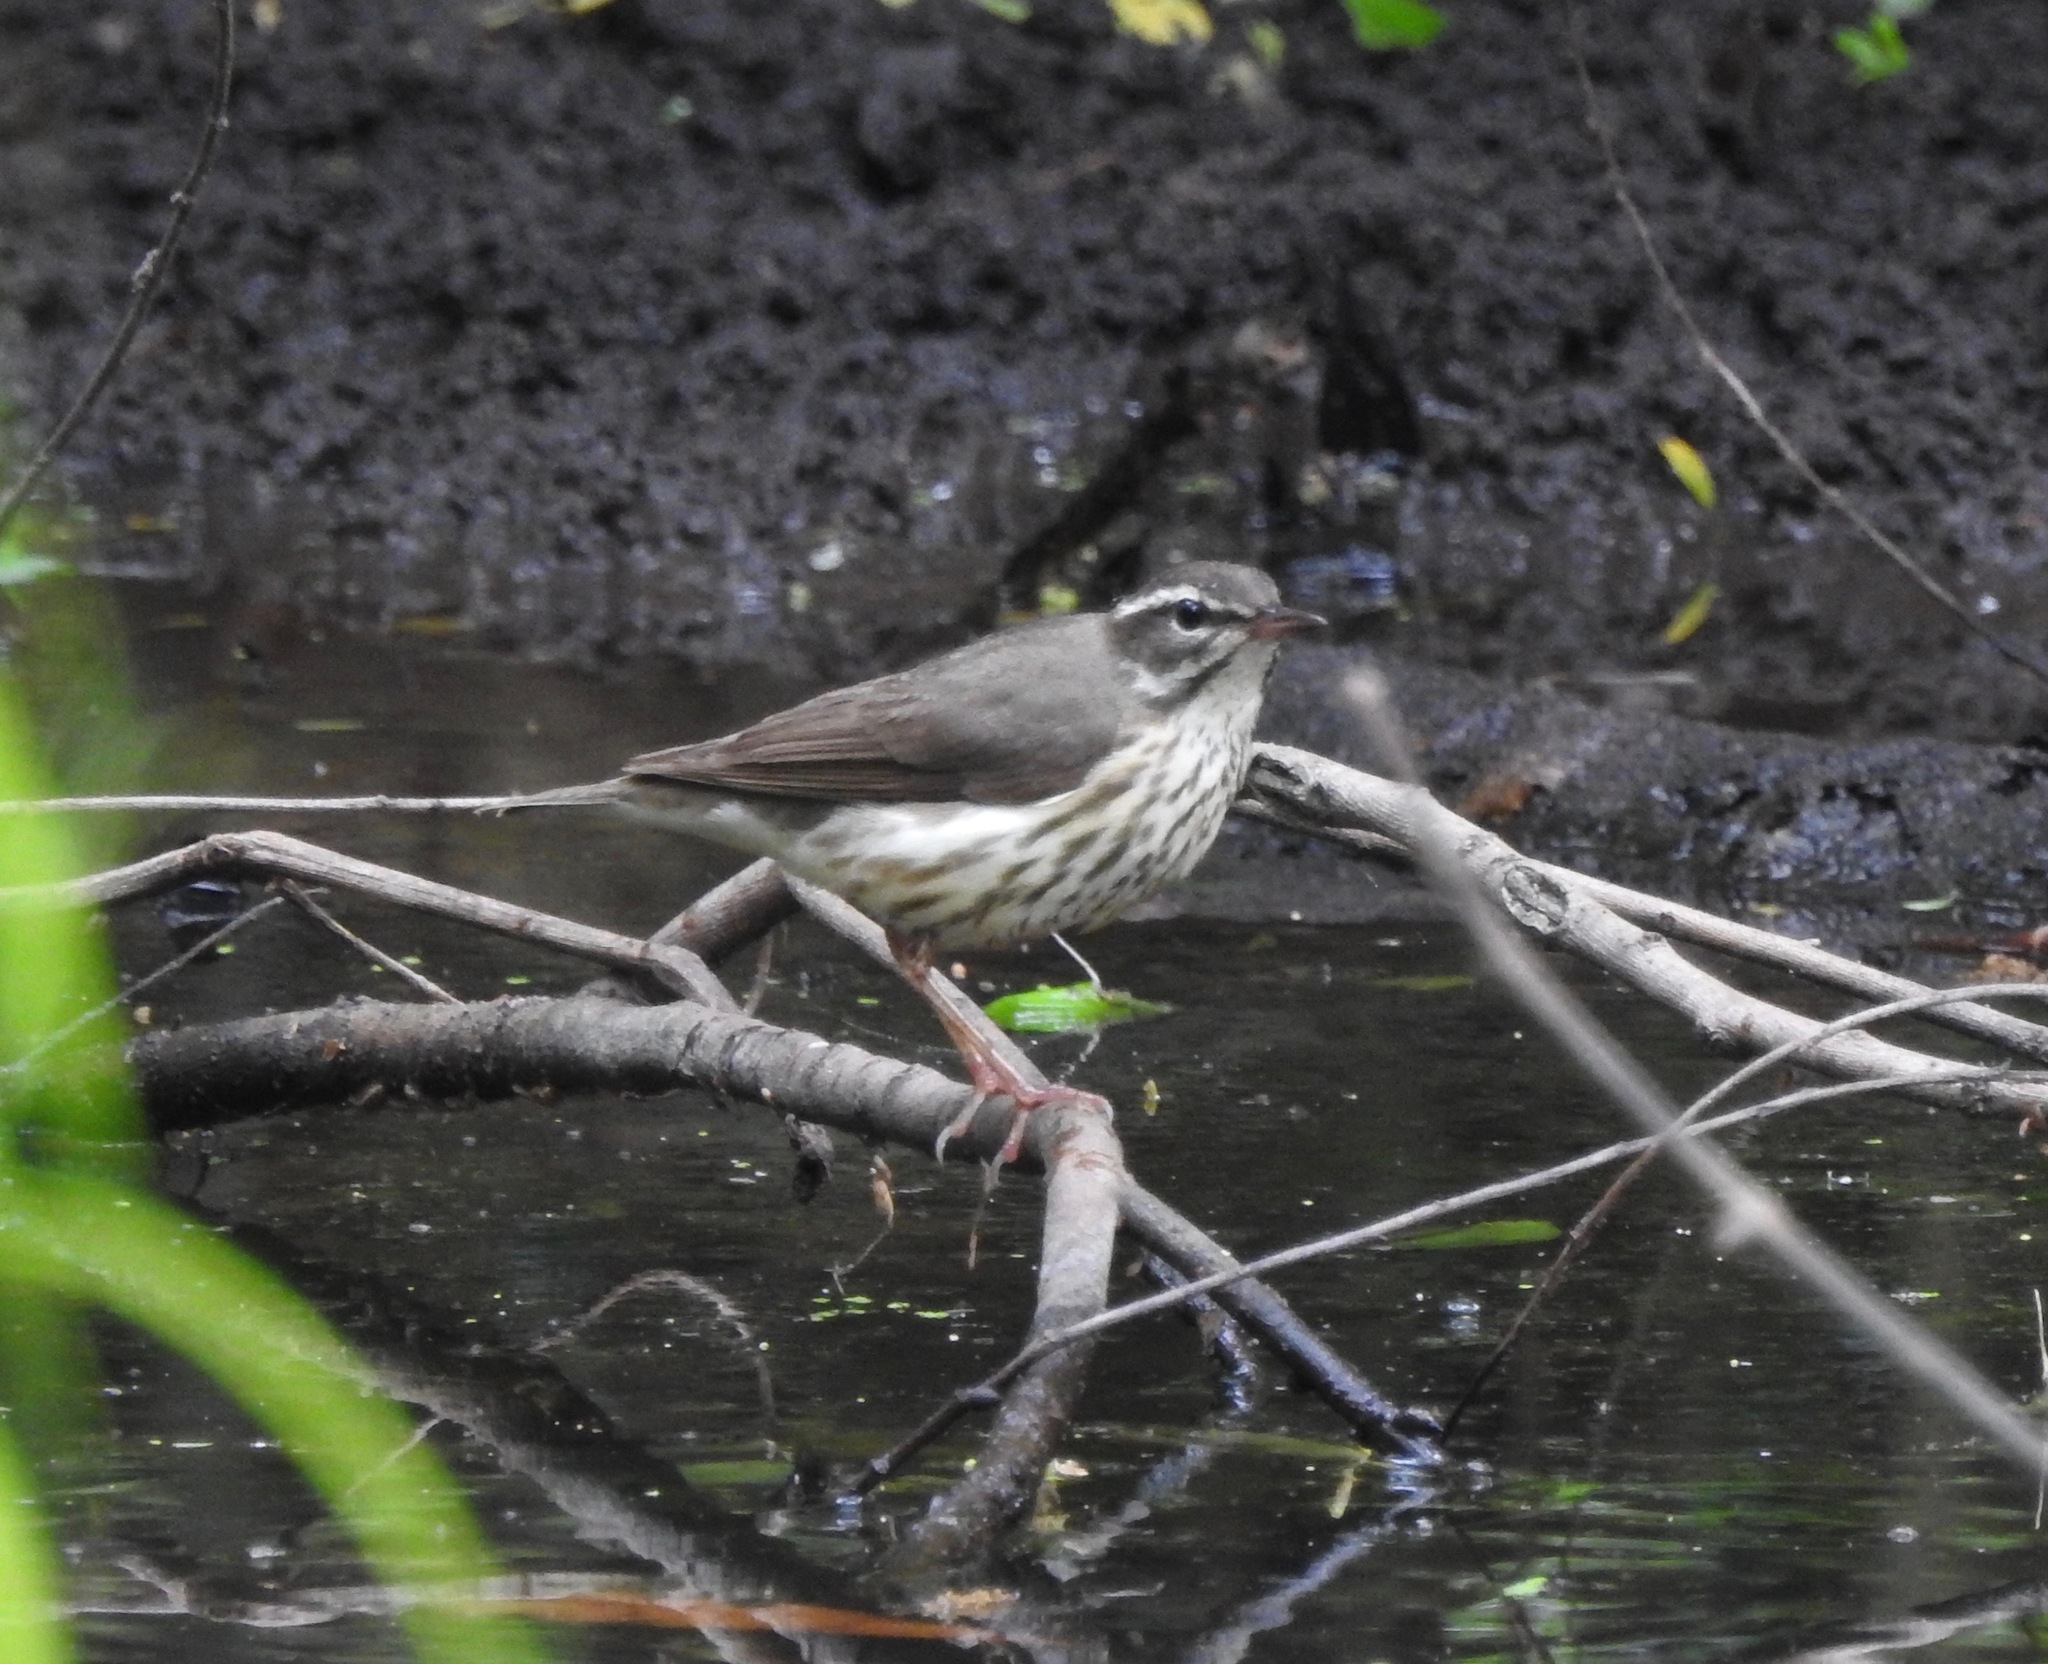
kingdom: Animalia
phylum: Chordata
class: Aves
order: Passeriformes
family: Parulidae
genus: Parkesia
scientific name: Parkesia motacilla
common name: Louisiana waterthrush
